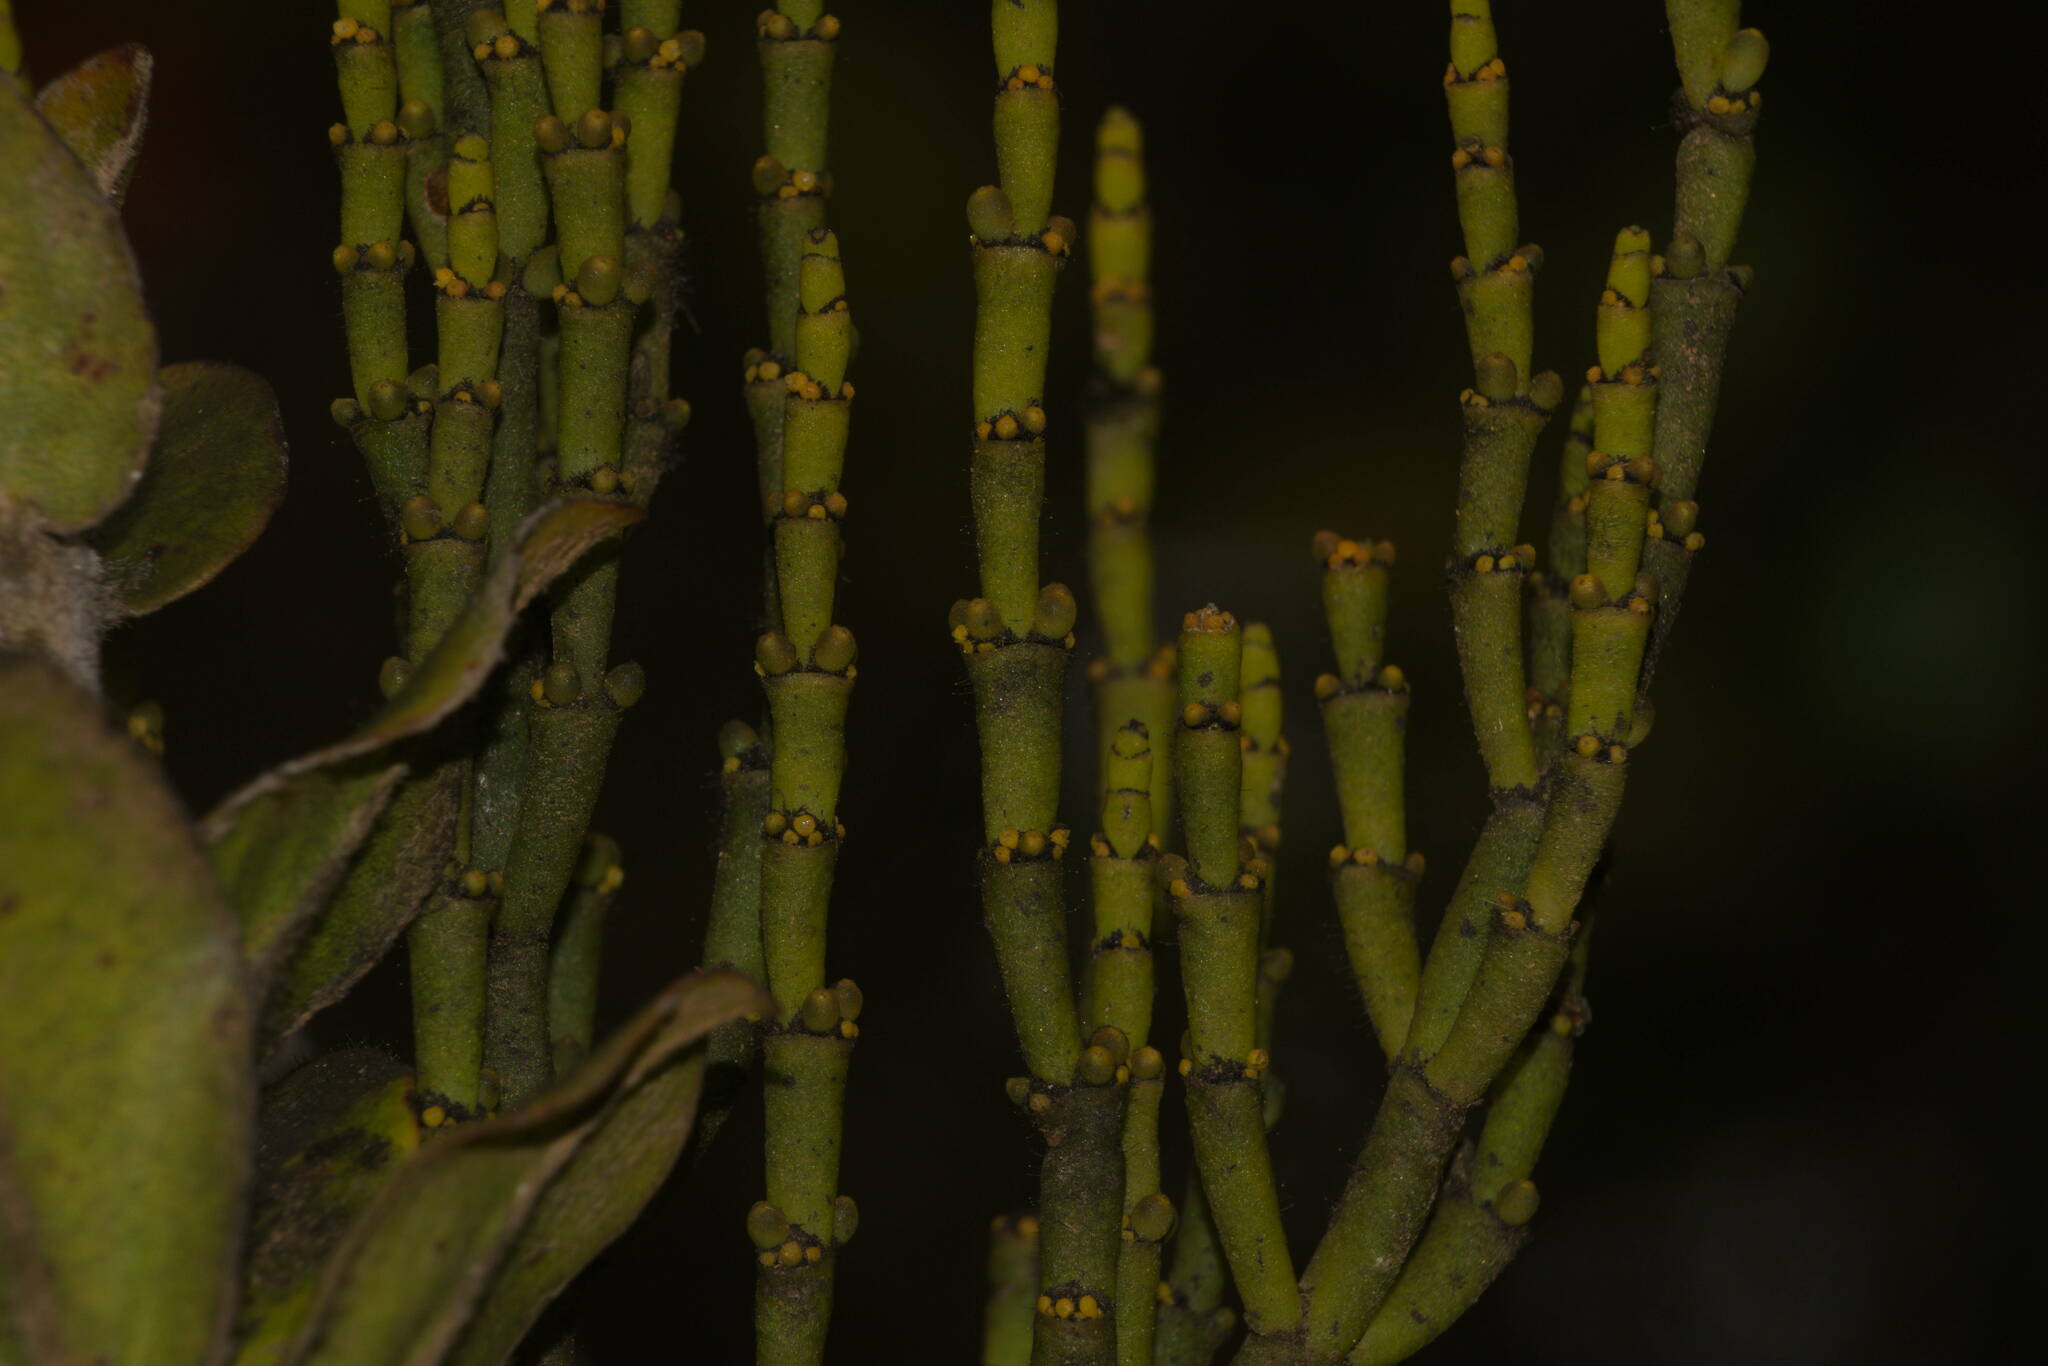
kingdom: Plantae
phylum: Tracheophyta
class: Magnoliopsida
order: Santalales
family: Viscaceae
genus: Korthalsella
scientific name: Korthalsella remyana
